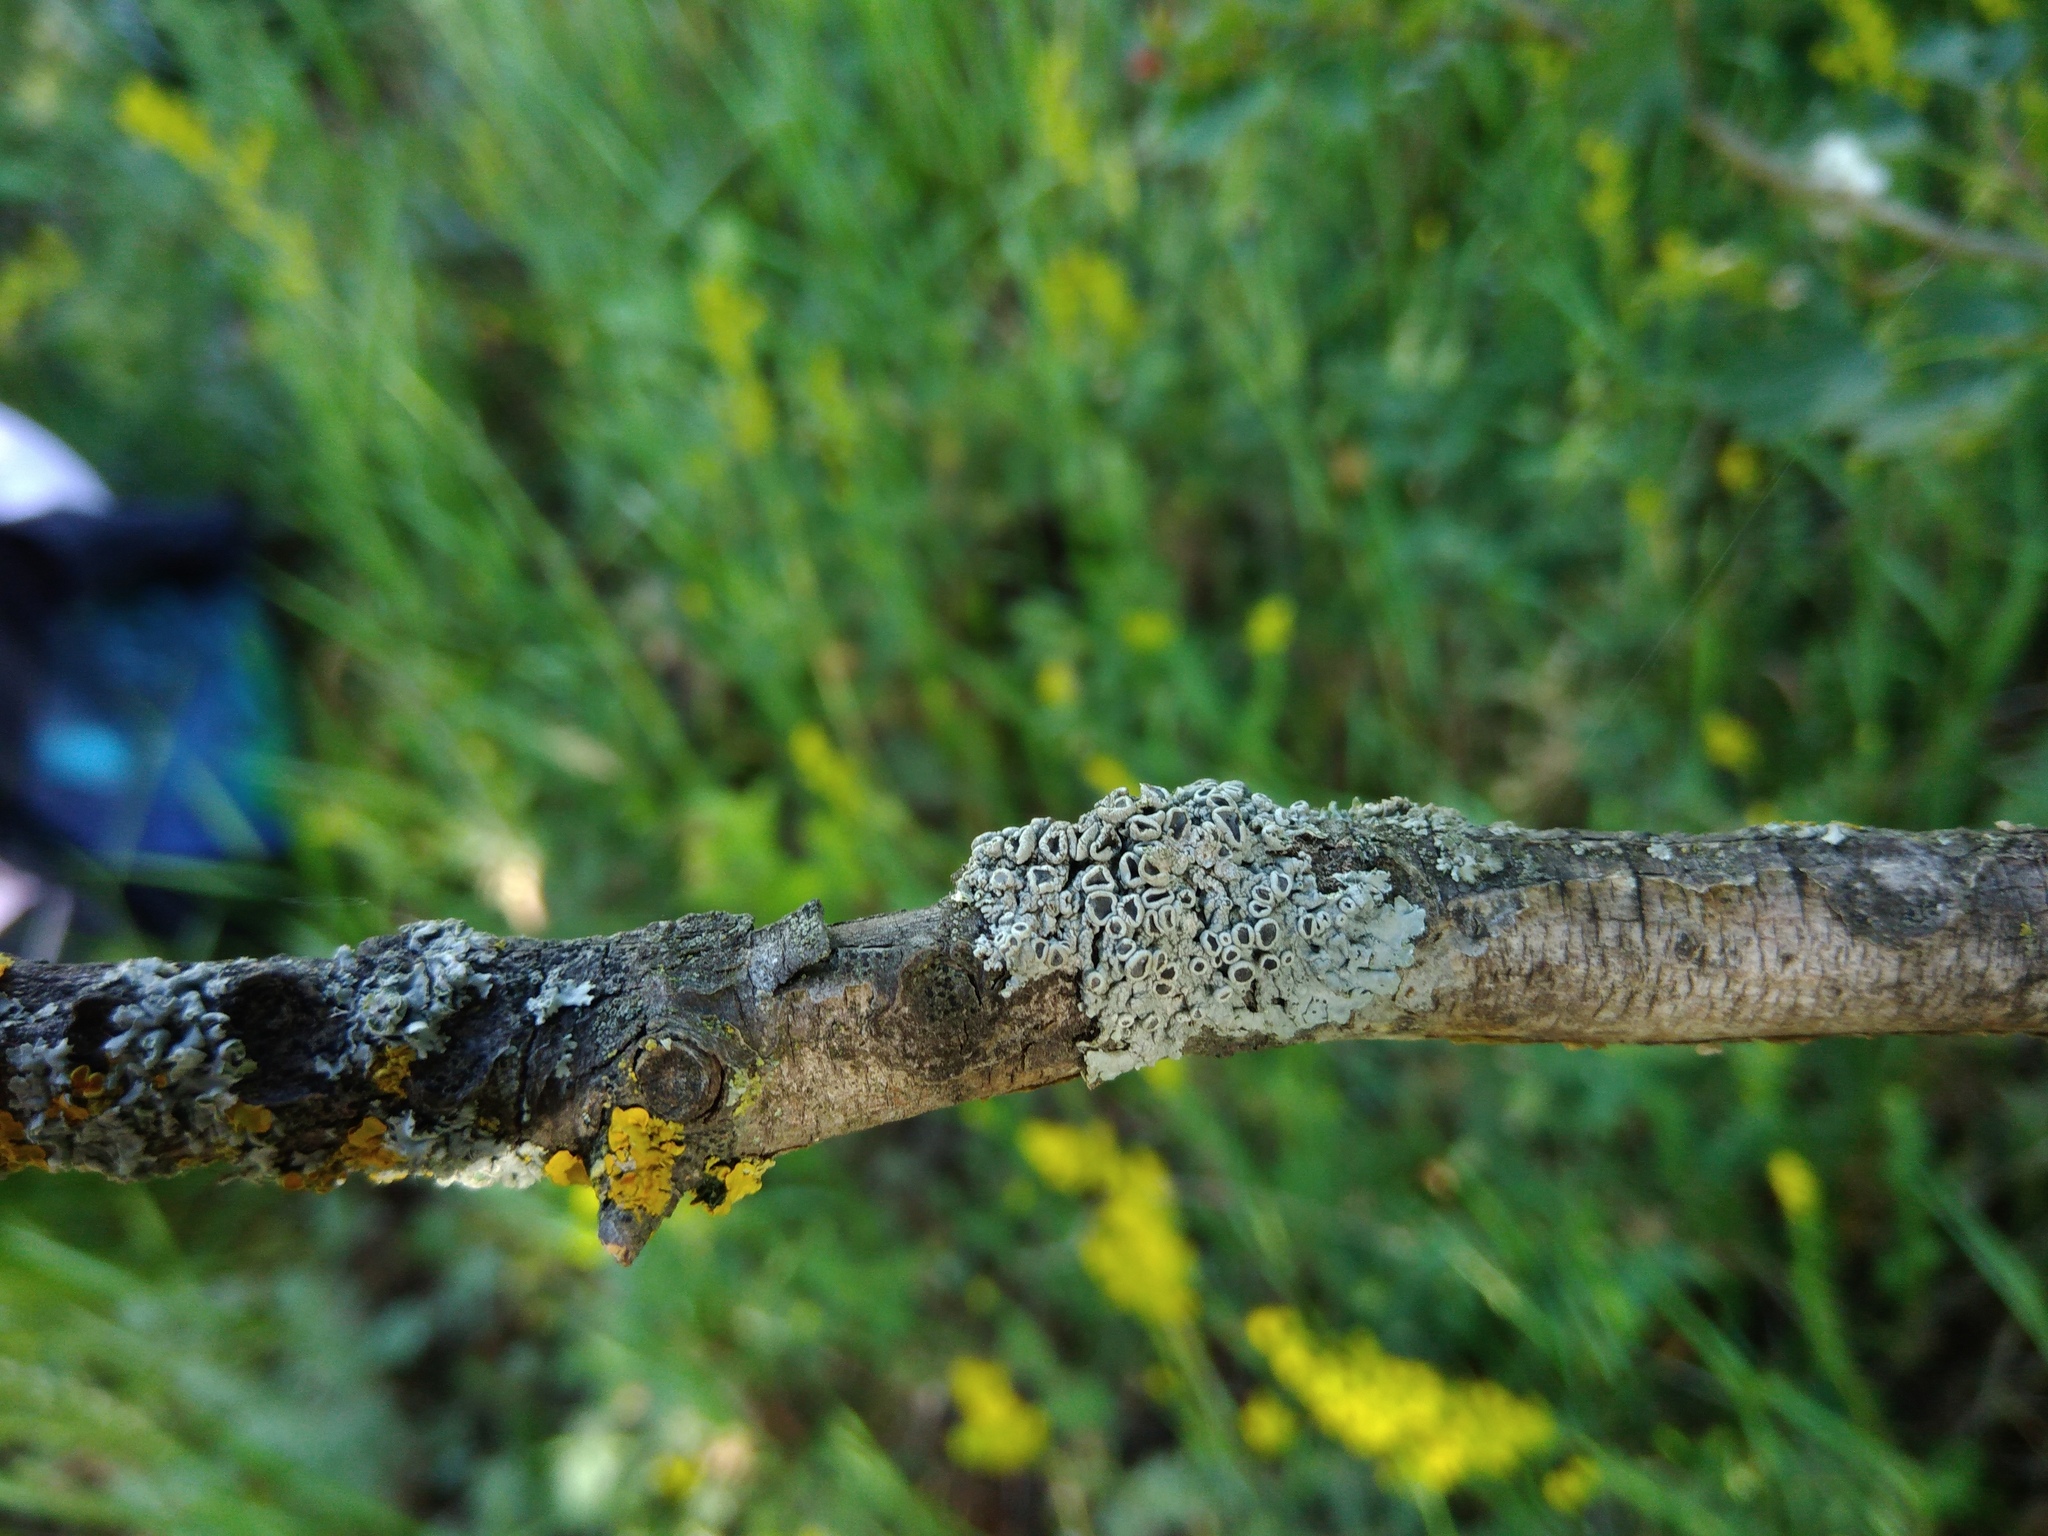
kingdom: Fungi
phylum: Ascomycota
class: Lecanoromycetes
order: Caliciales
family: Physciaceae
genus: Physcia
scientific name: Physcia stellaris
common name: Star rosette lichen
